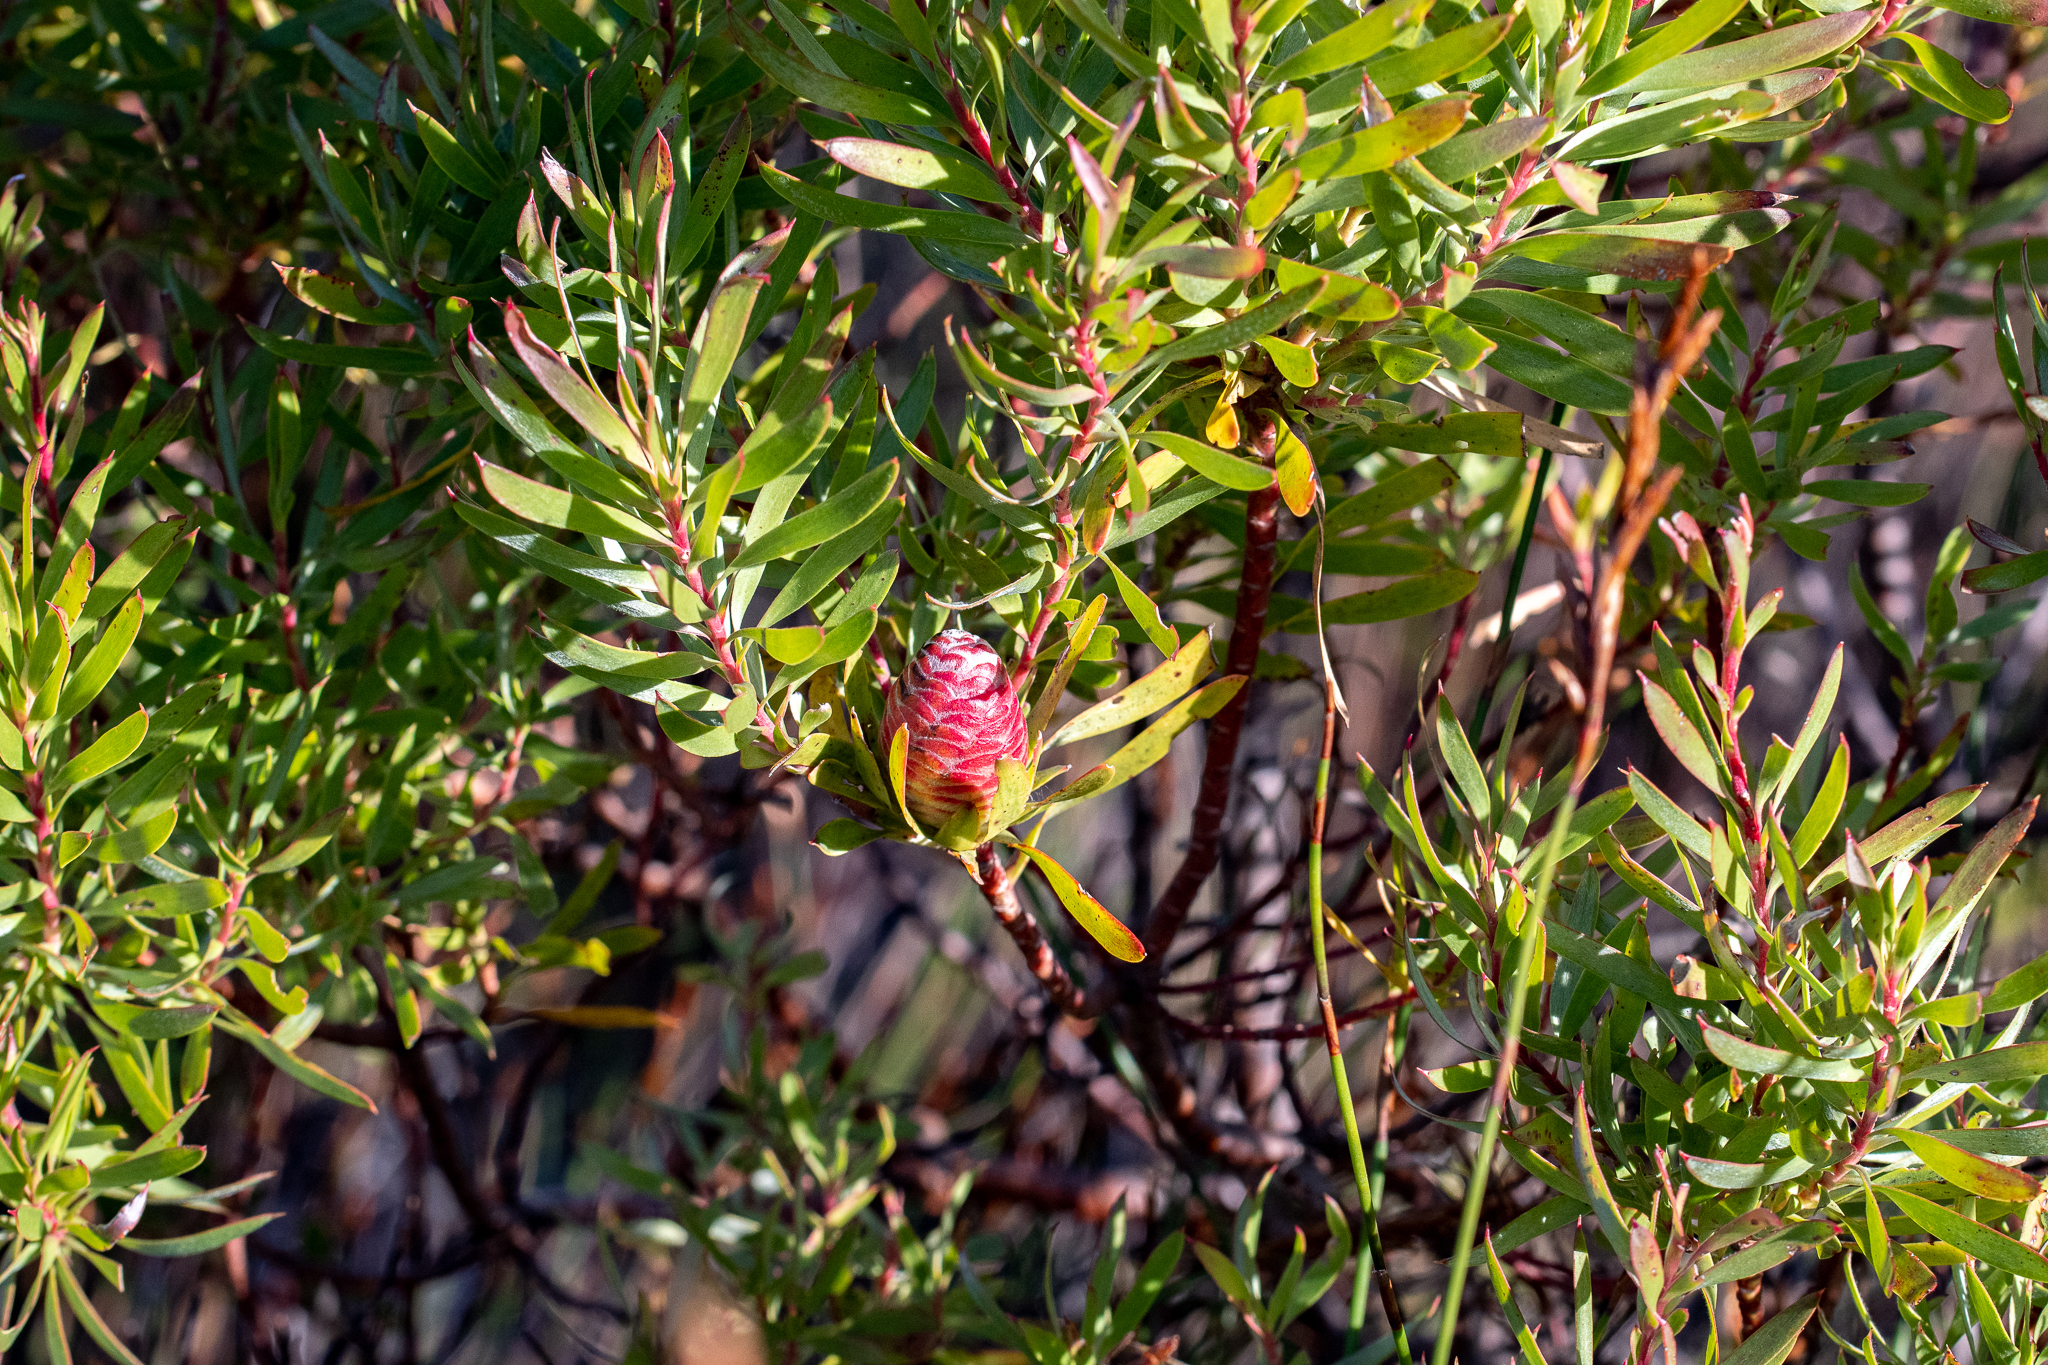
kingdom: Plantae
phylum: Tracheophyta
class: Magnoliopsida
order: Proteales
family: Proteaceae
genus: Leucadendron
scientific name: Leucadendron xanthoconus
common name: Sickle-leaf conebush
